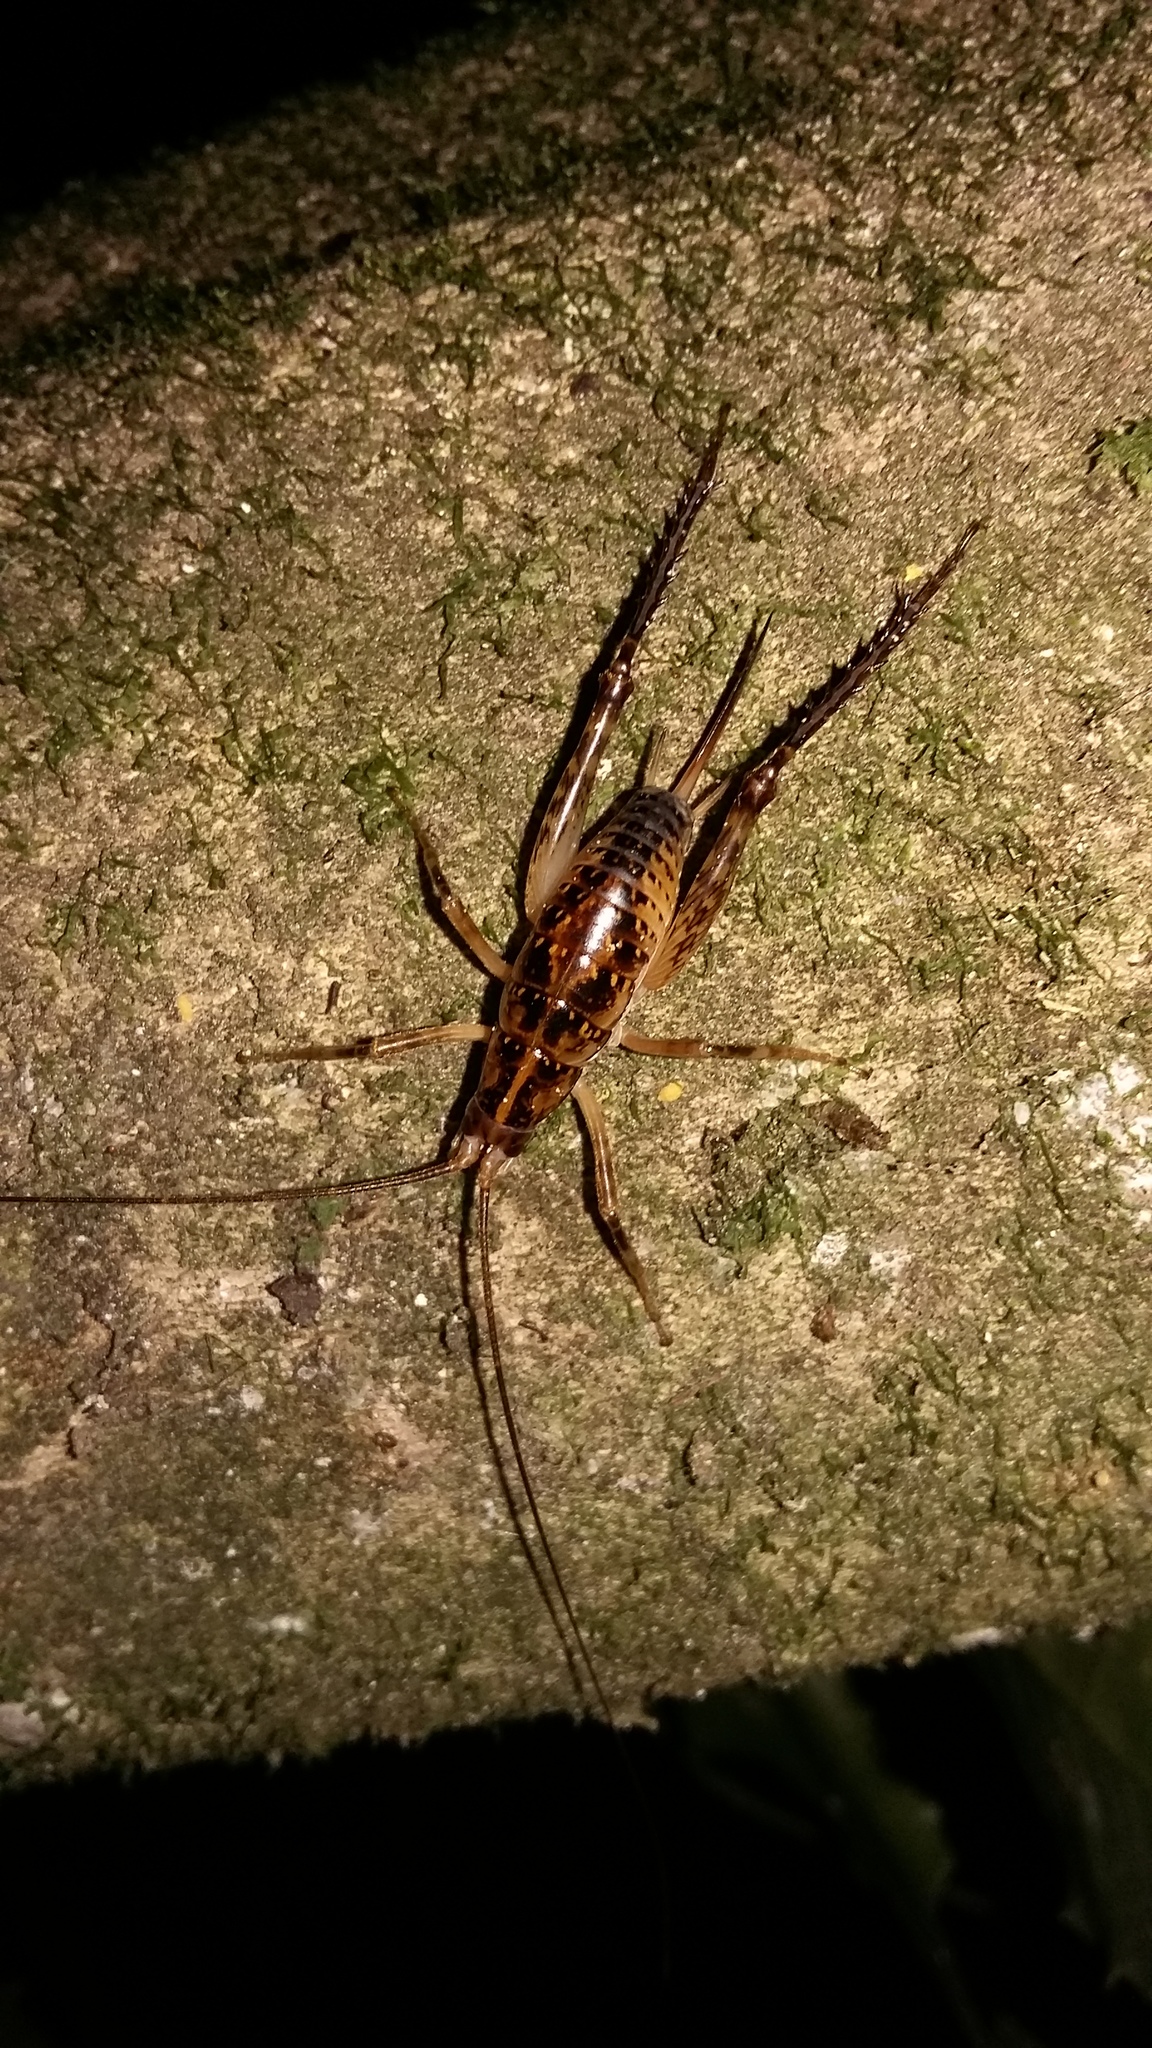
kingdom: Animalia
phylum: Arthropoda
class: Insecta
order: Orthoptera
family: Rhaphidophoridae
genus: Talitropsis
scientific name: Talitropsis sedilloti
